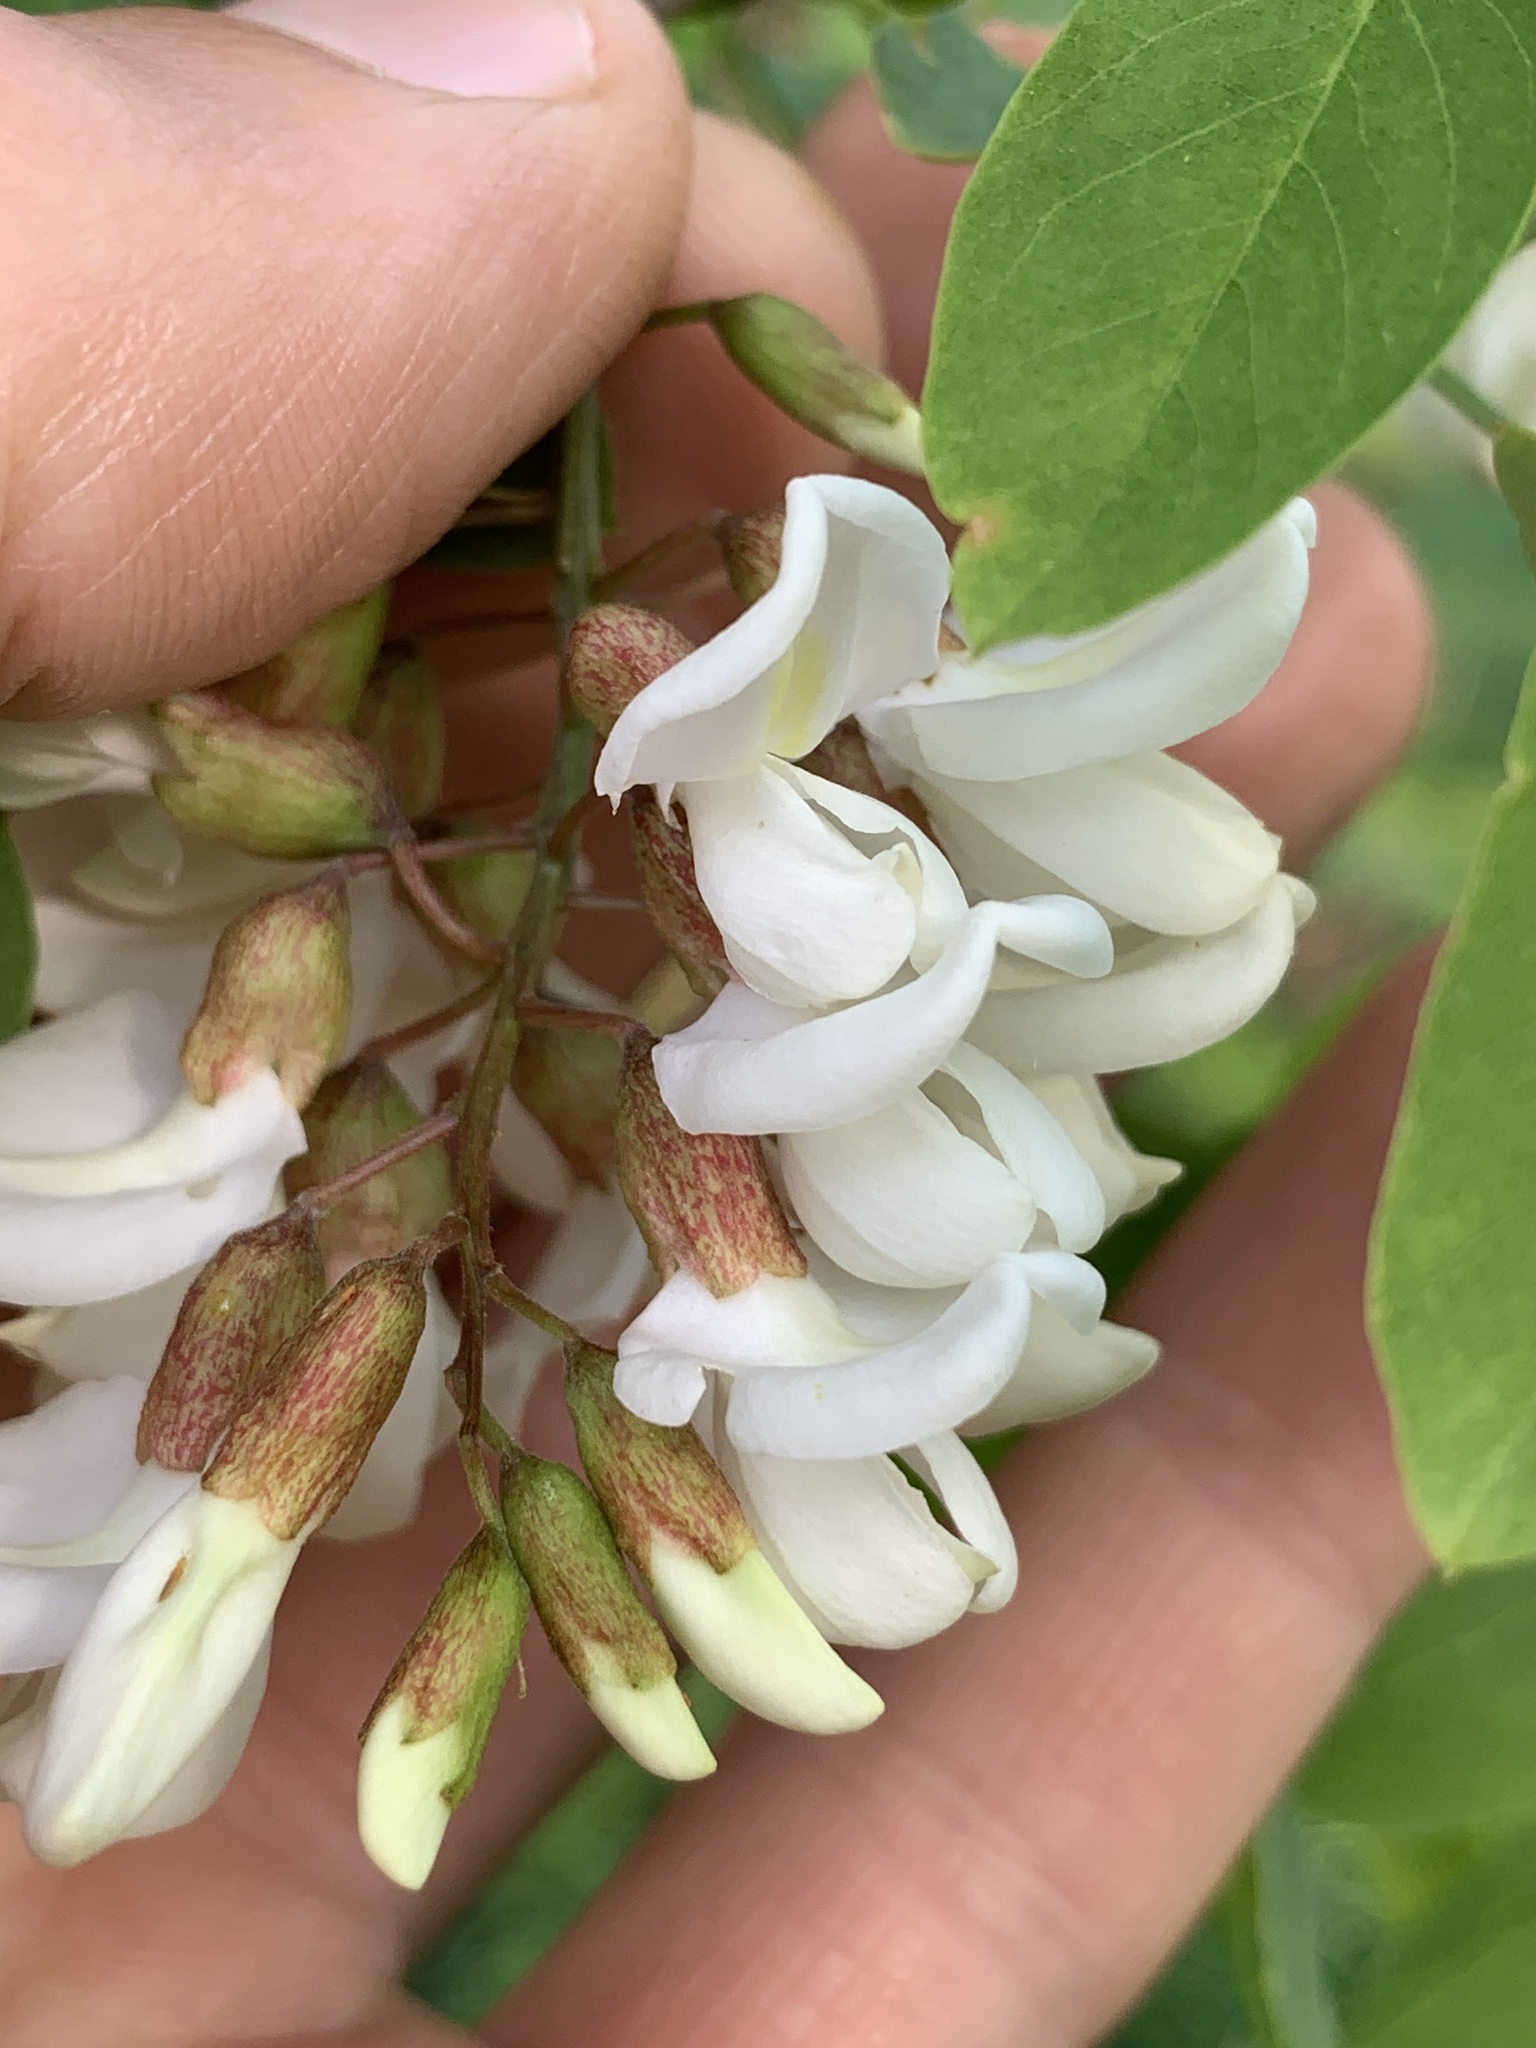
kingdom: Plantae
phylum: Tracheophyta
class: Magnoliopsida
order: Fabales
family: Fabaceae
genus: Robinia
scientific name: Robinia pseudoacacia
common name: Black locust
